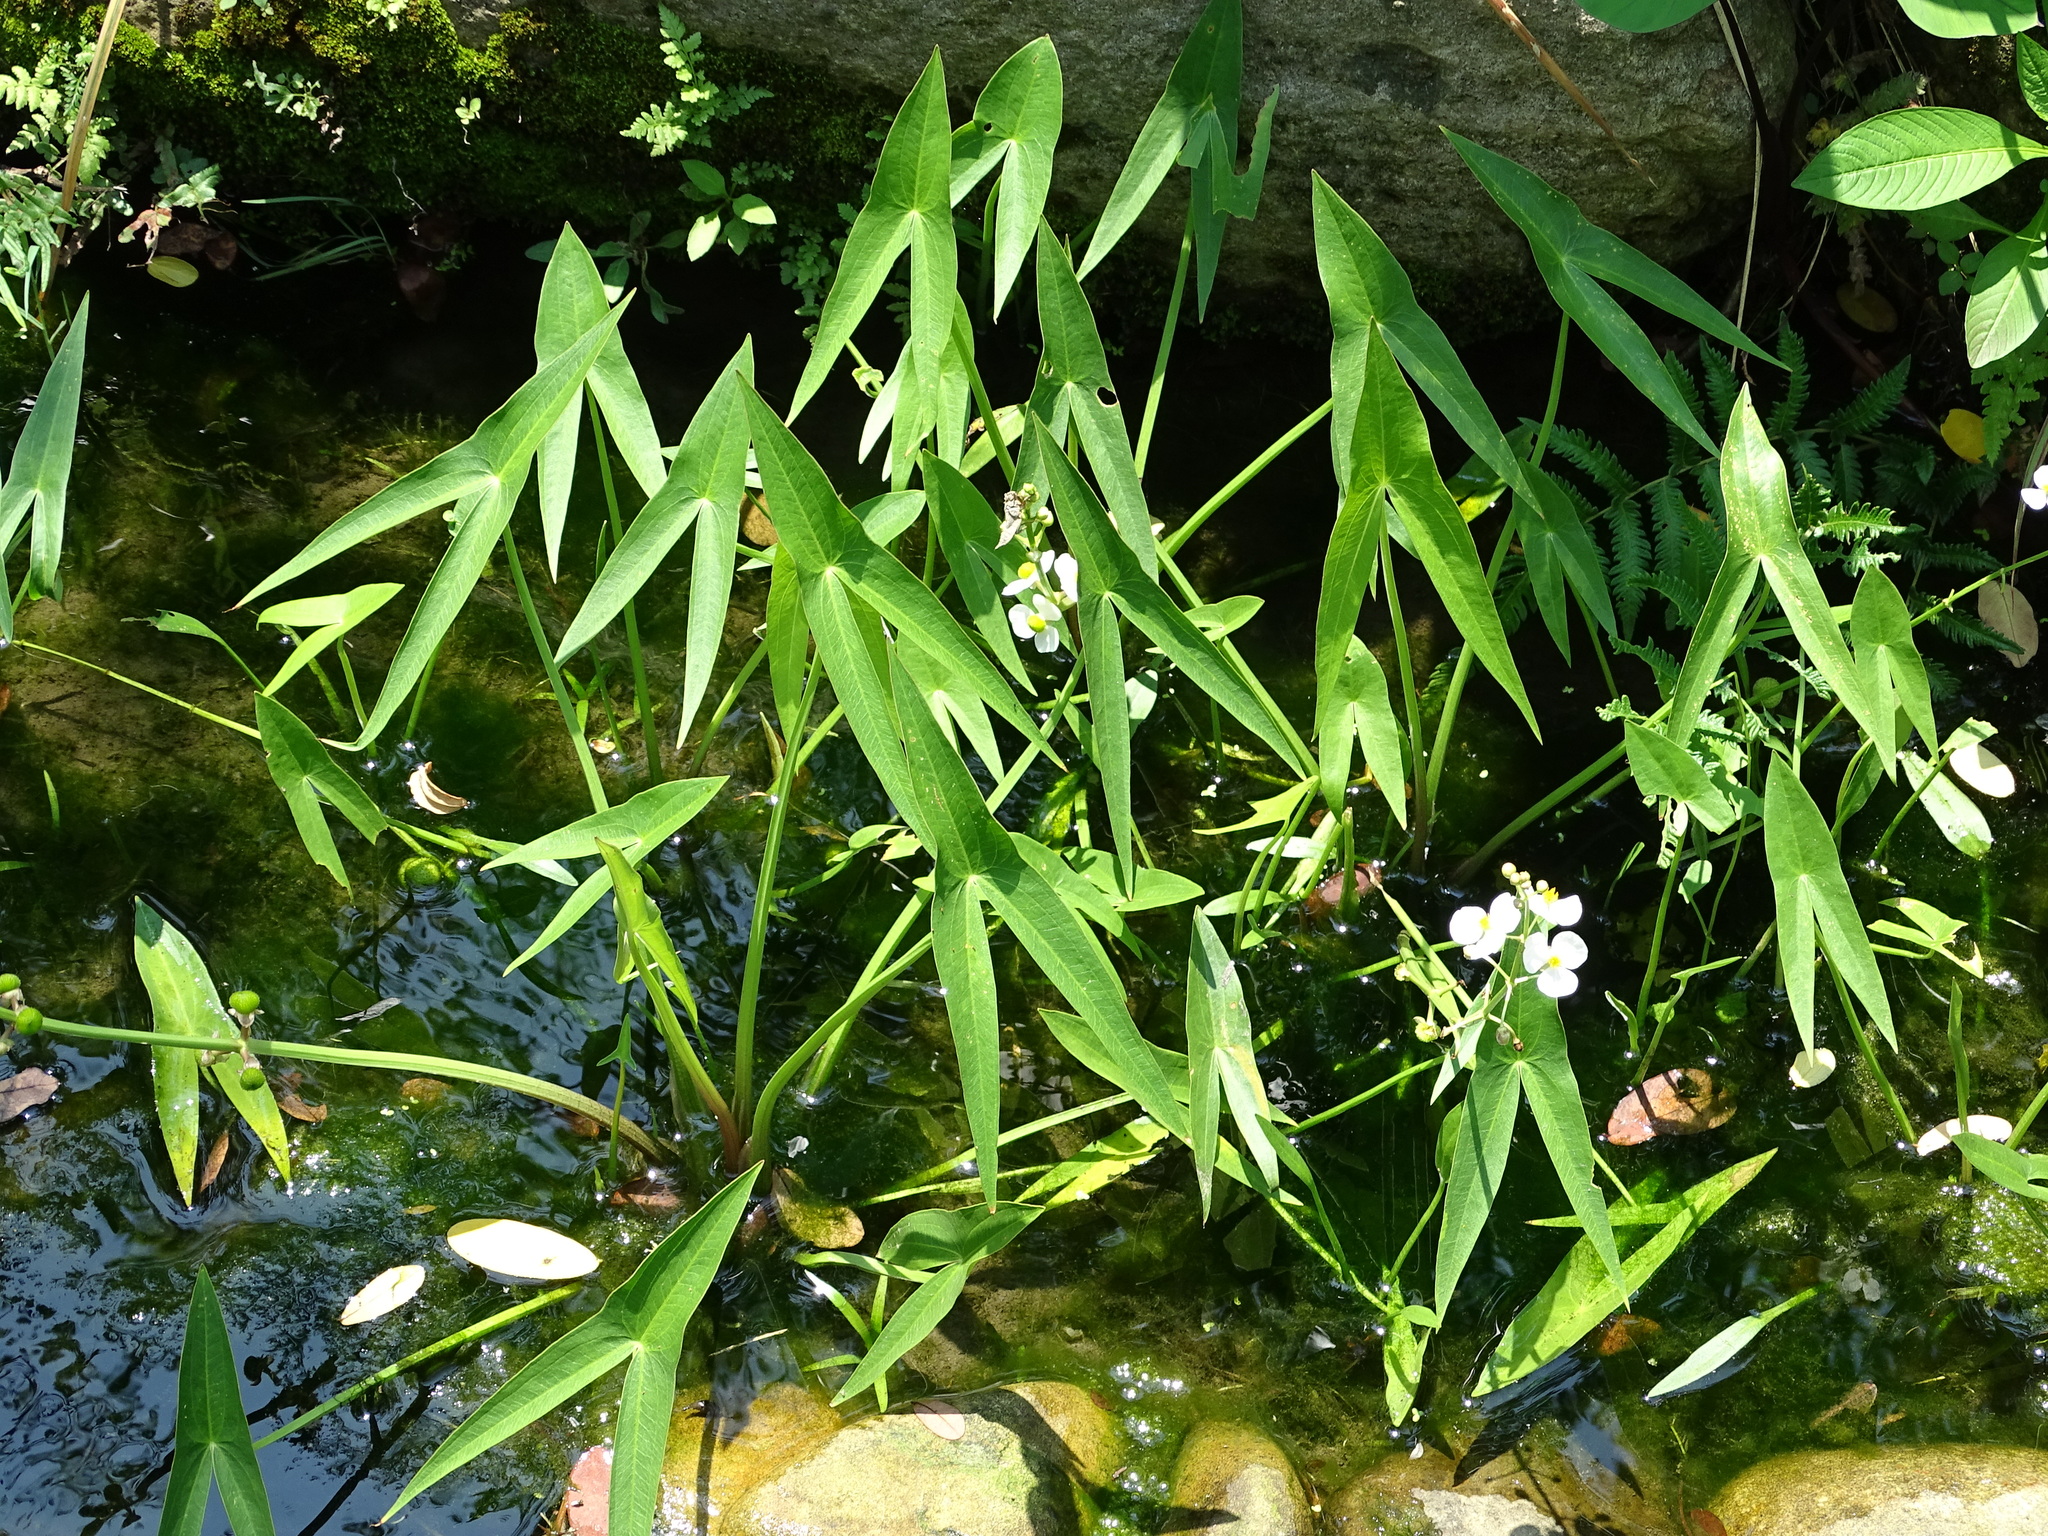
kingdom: Plantae
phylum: Tracheophyta
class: Liliopsida
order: Alismatales
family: Alismataceae
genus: Sagittaria
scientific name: Sagittaria trifolia
